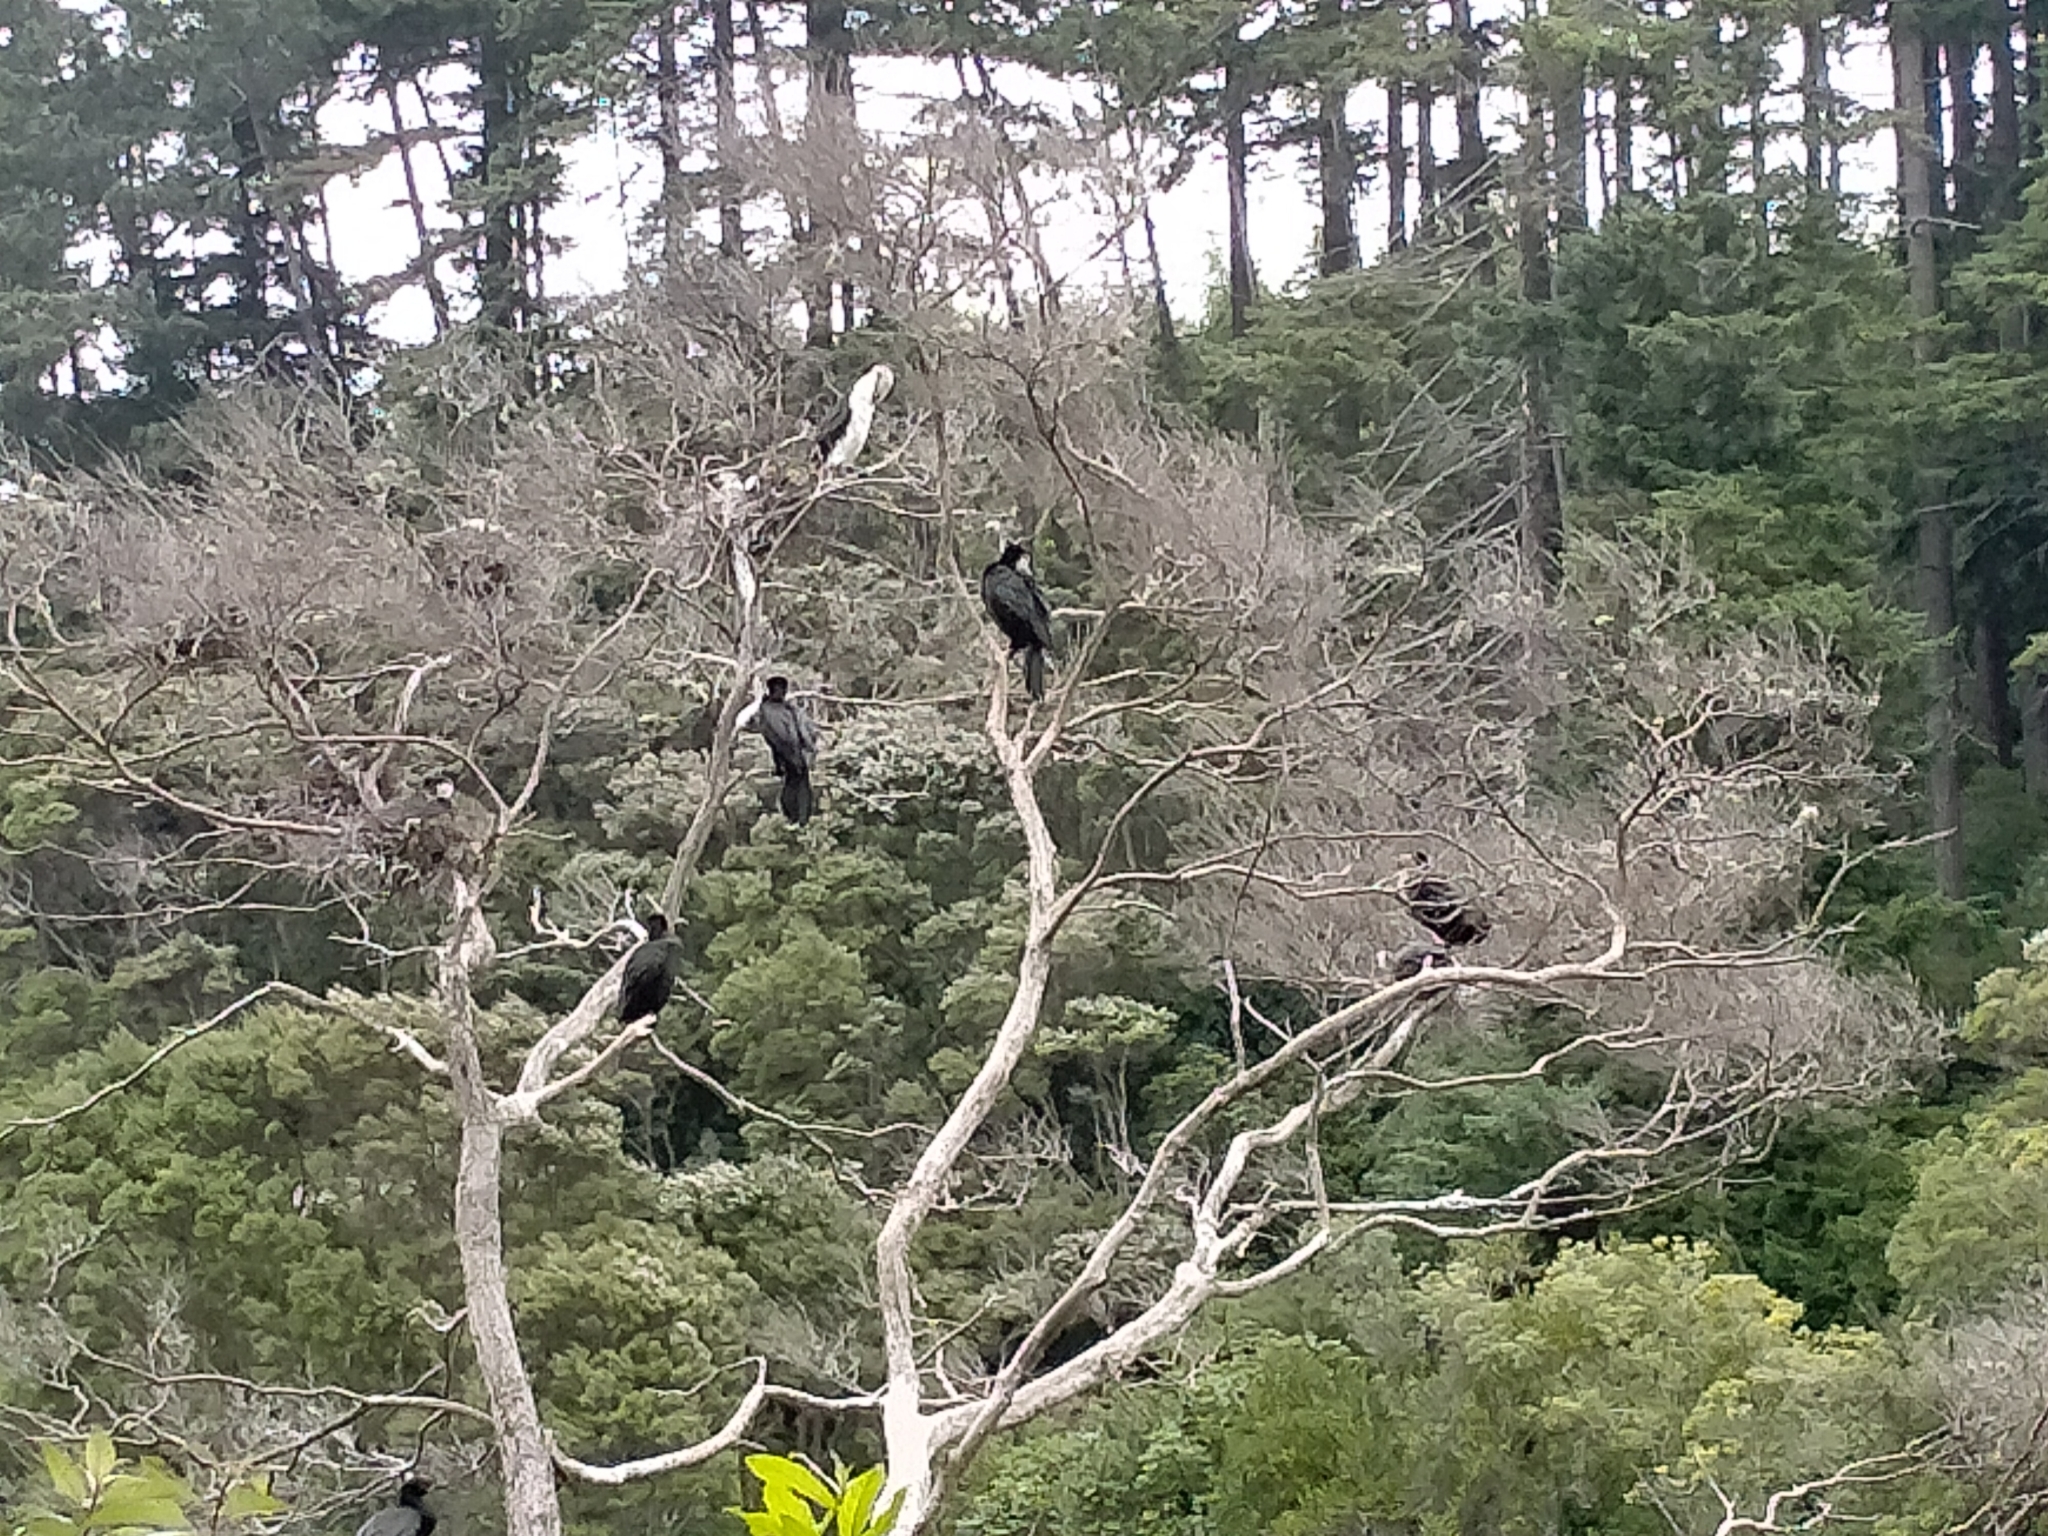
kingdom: Animalia
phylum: Chordata
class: Aves
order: Suliformes
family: Phalacrocoracidae
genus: Microcarbo
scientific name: Microcarbo melanoleucos
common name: Little pied cormorant
